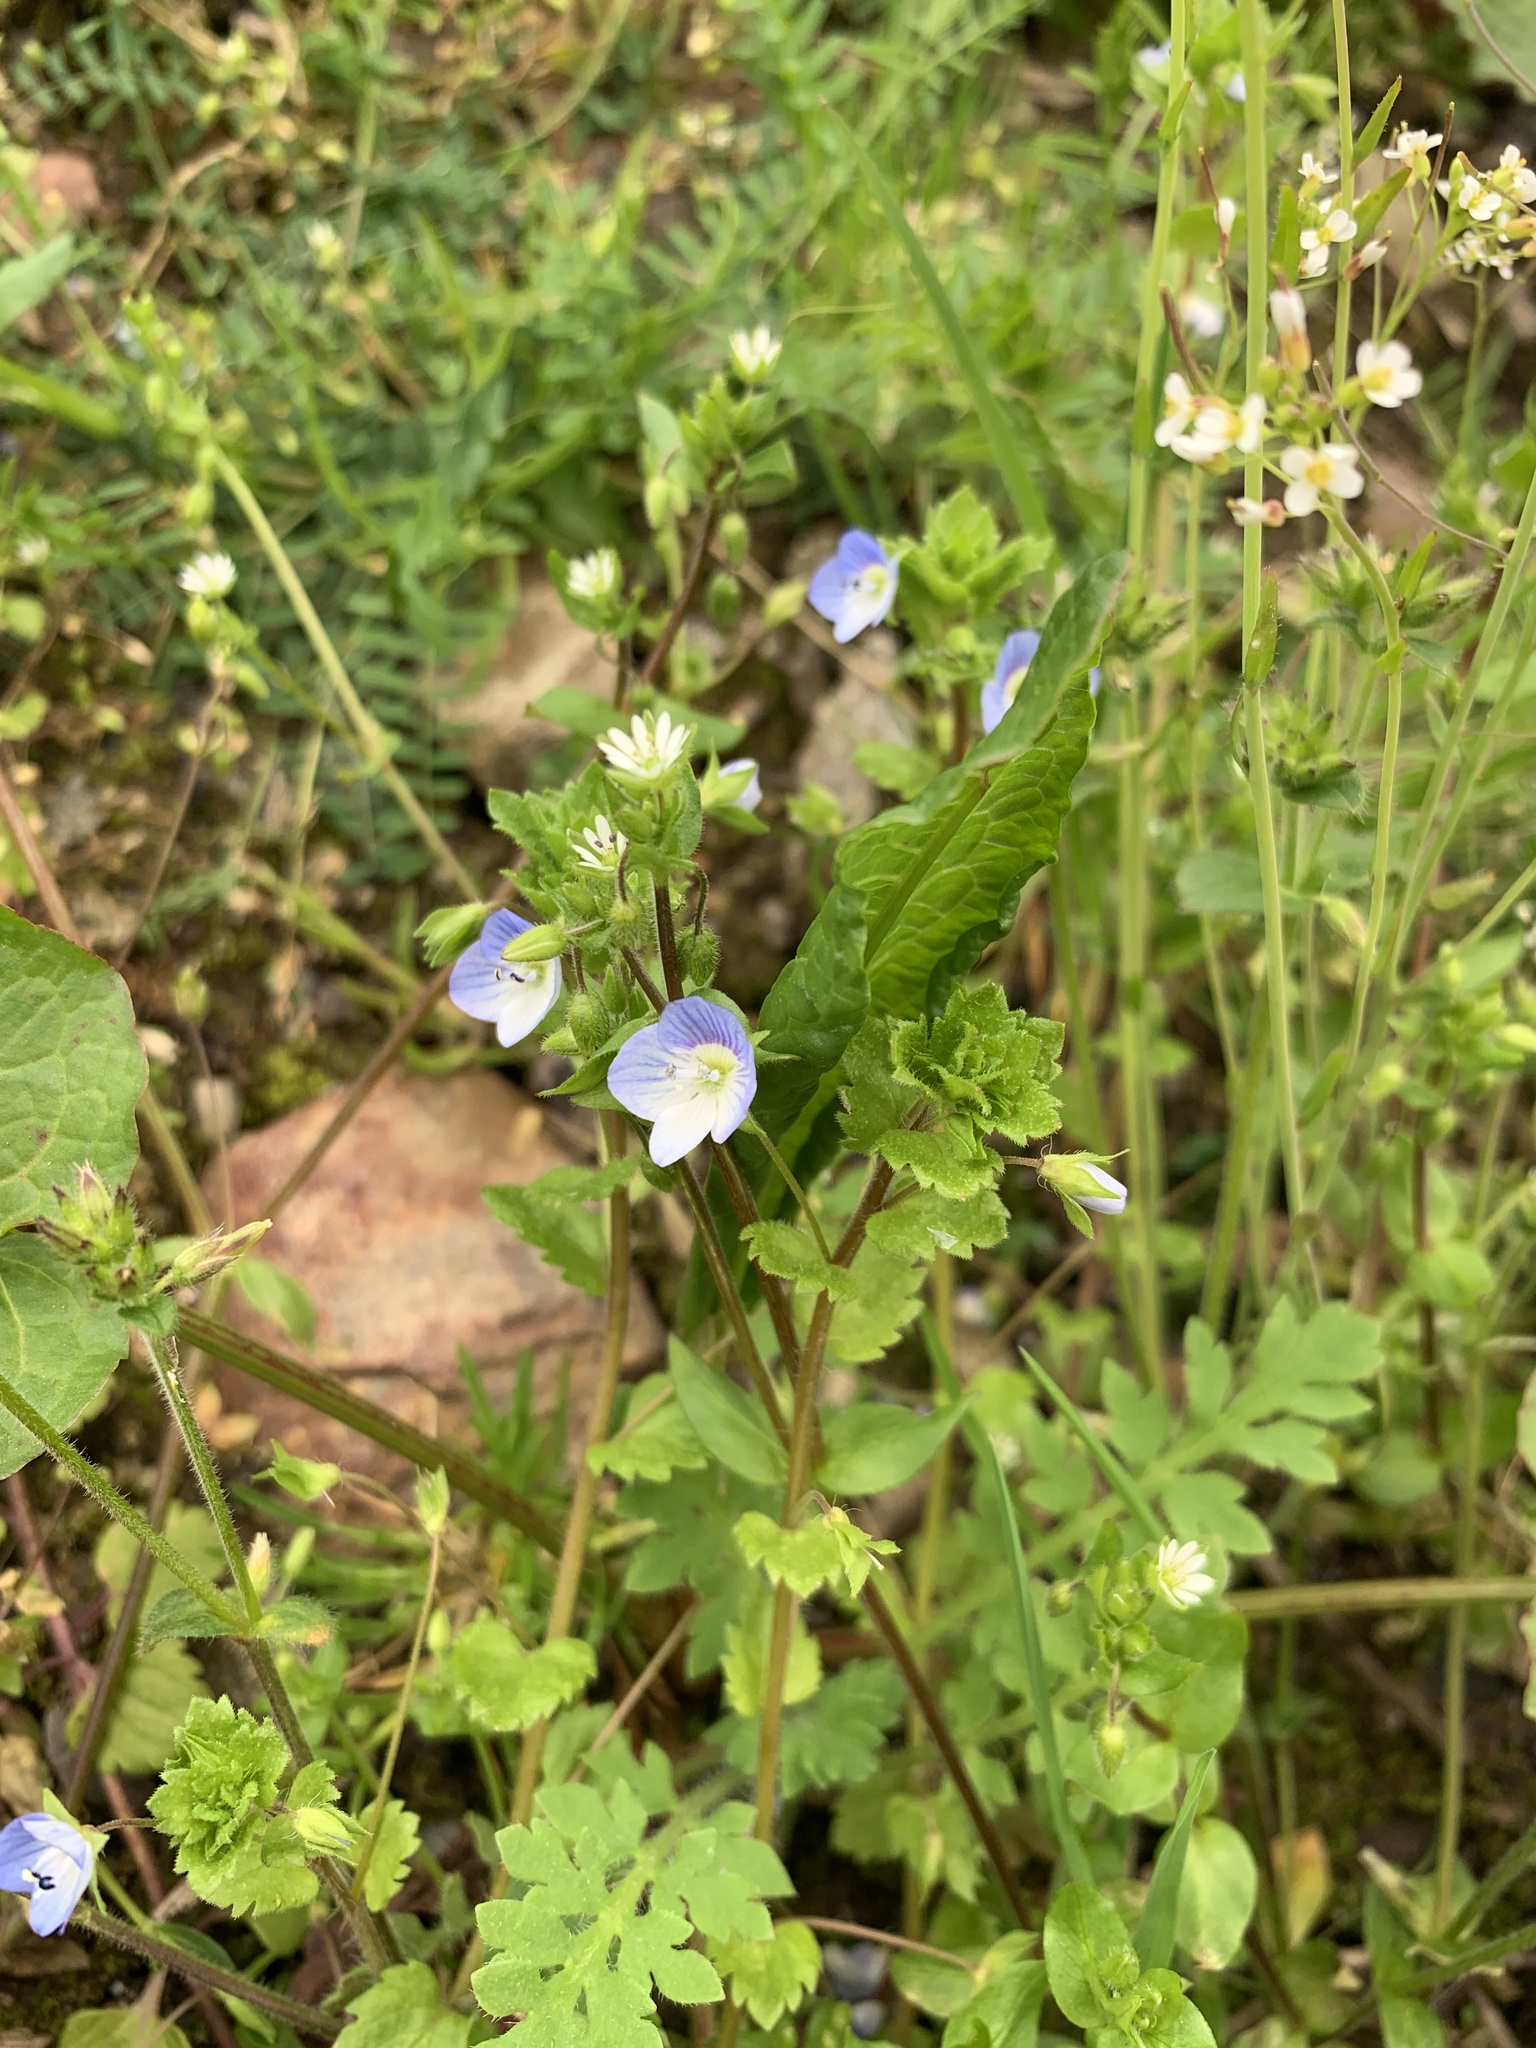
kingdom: Plantae
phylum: Tracheophyta
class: Magnoliopsida
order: Lamiales
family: Plantaginaceae
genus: Veronica
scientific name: Veronica persica
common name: Common field-speedwell
